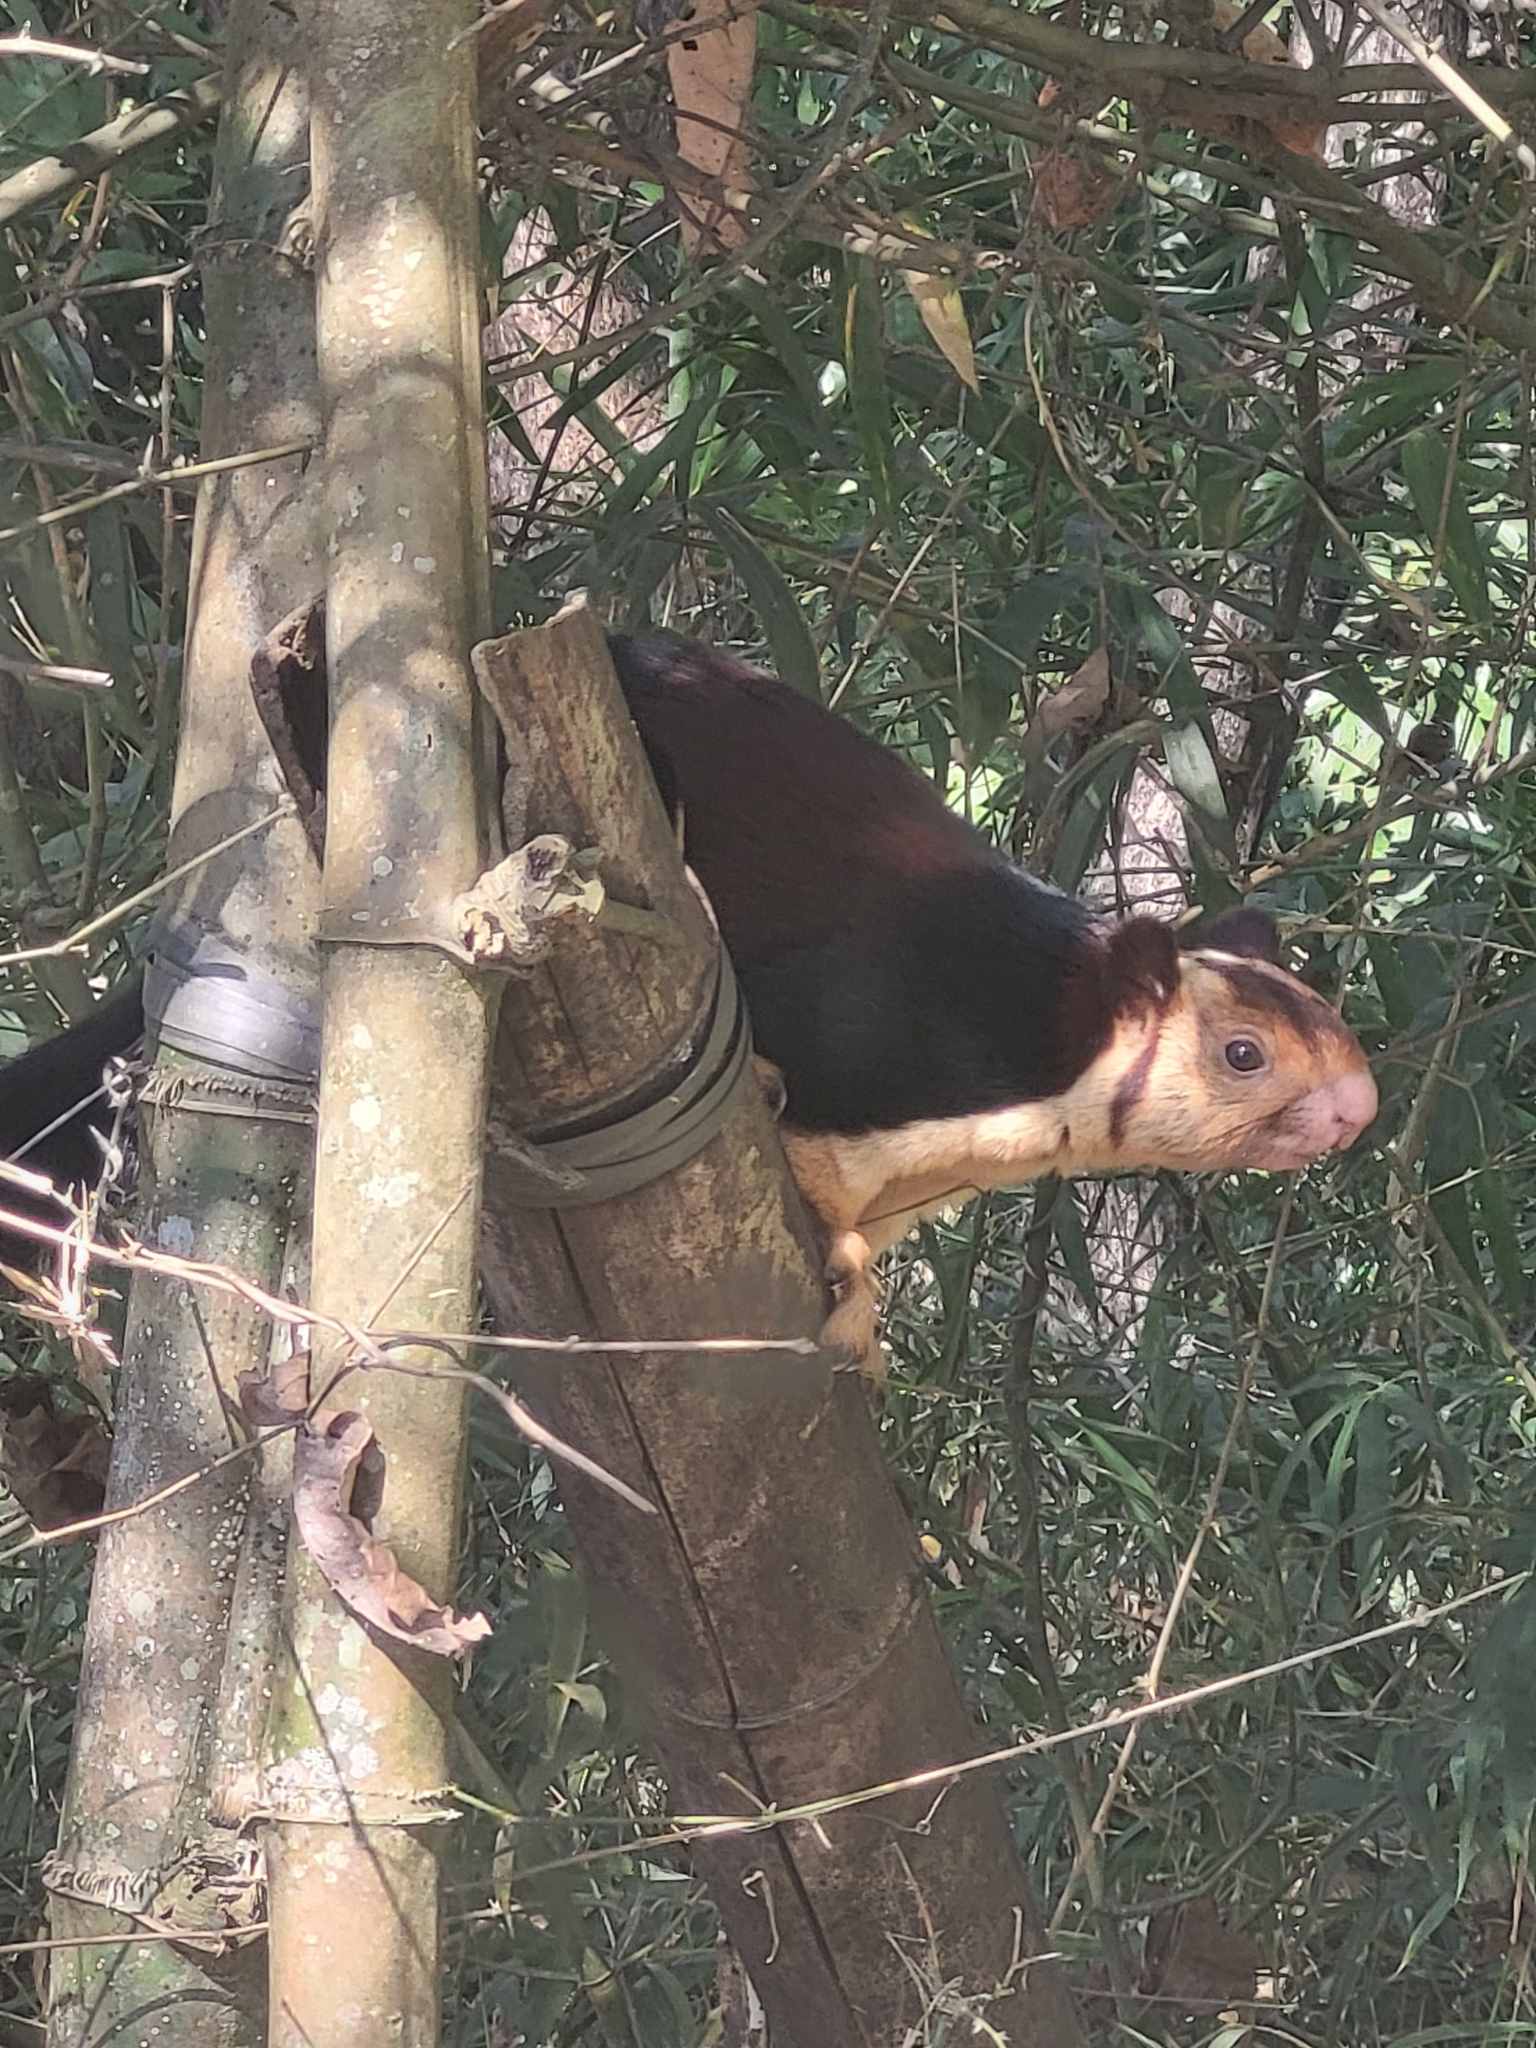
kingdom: Animalia
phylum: Chordata
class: Mammalia
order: Rodentia
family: Sciuridae
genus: Ratufa
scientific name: Ratufa indica
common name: Indian giant squirrel
